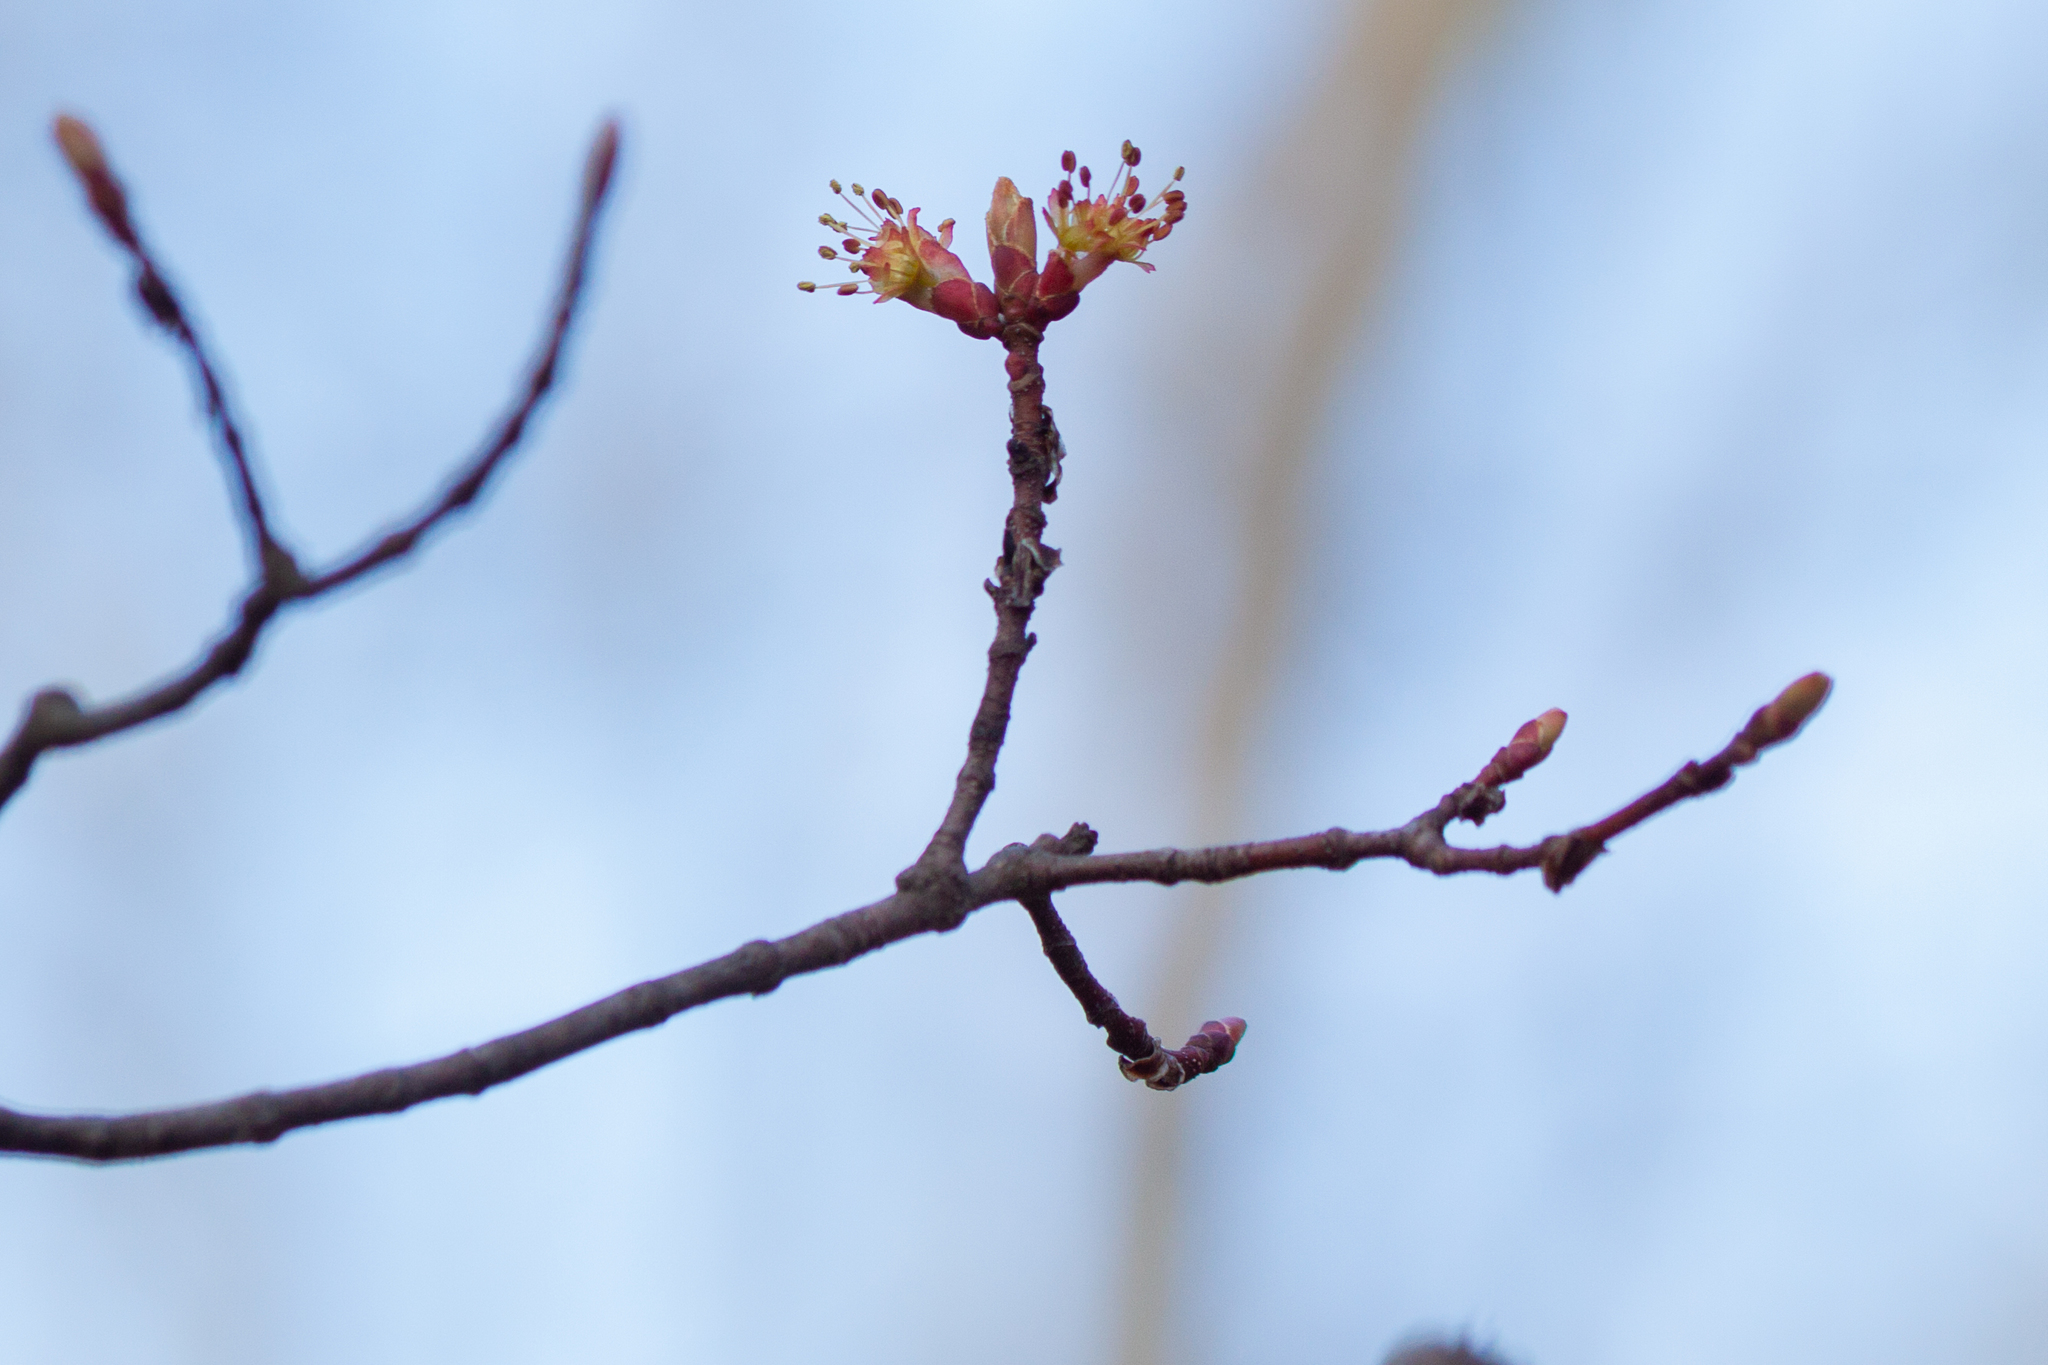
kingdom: Plantae
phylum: Tracheophyta
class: Magnoliopsida
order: Sapindales
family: Sapindaceae
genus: Acer
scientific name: Acer rubrum
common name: Red maple
